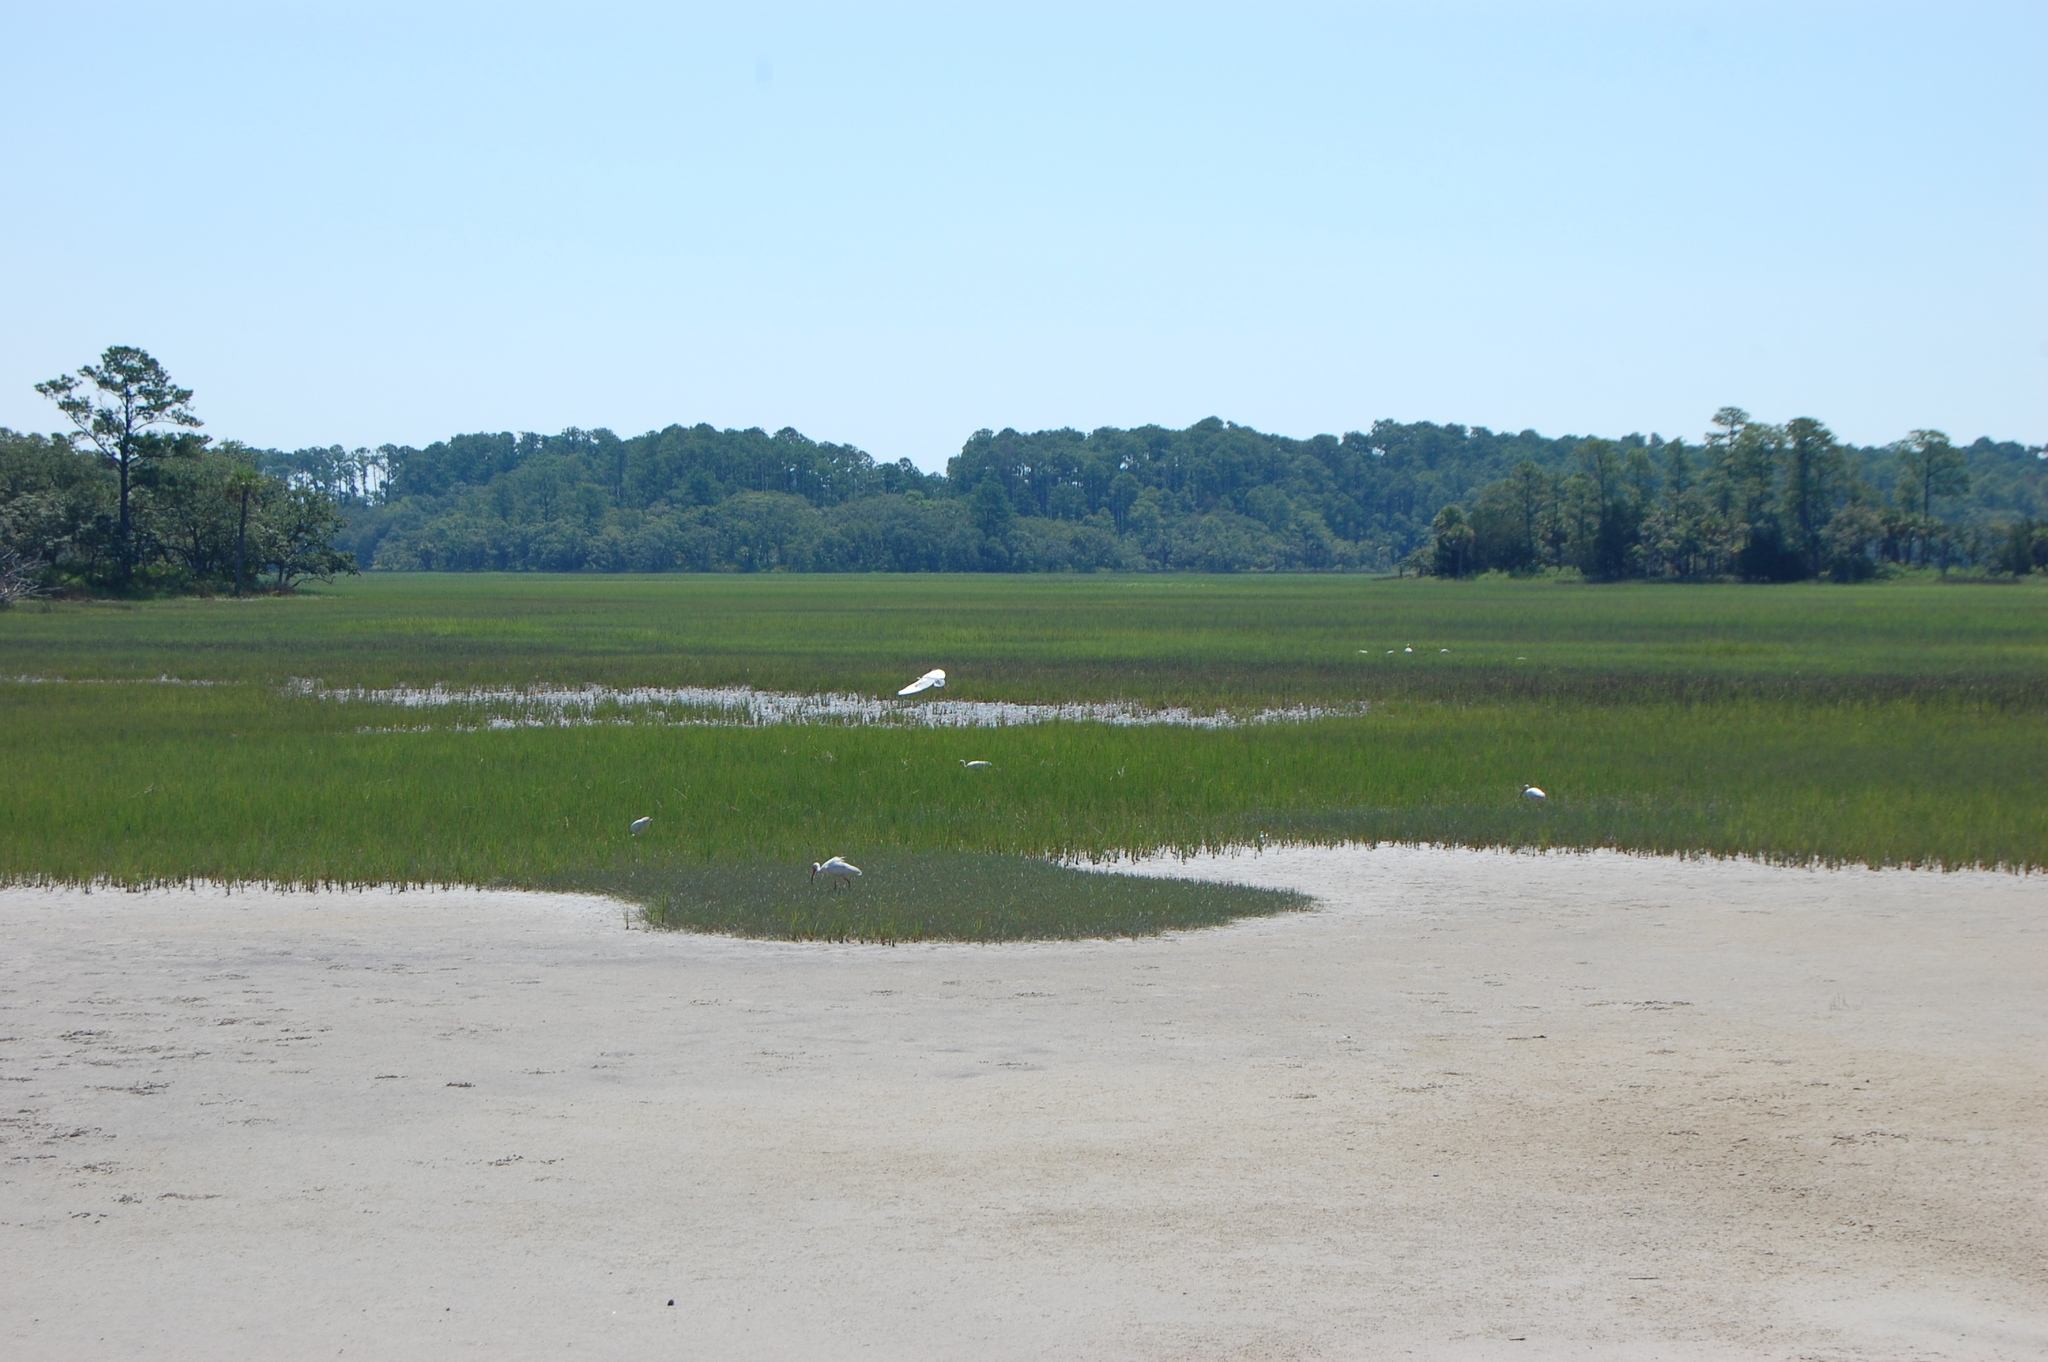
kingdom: Animalia
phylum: Chordata
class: Aves
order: Pelecaniformes
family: Threskiornithidae
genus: Eudocimus
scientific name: Eudocimus albus
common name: White ibis
